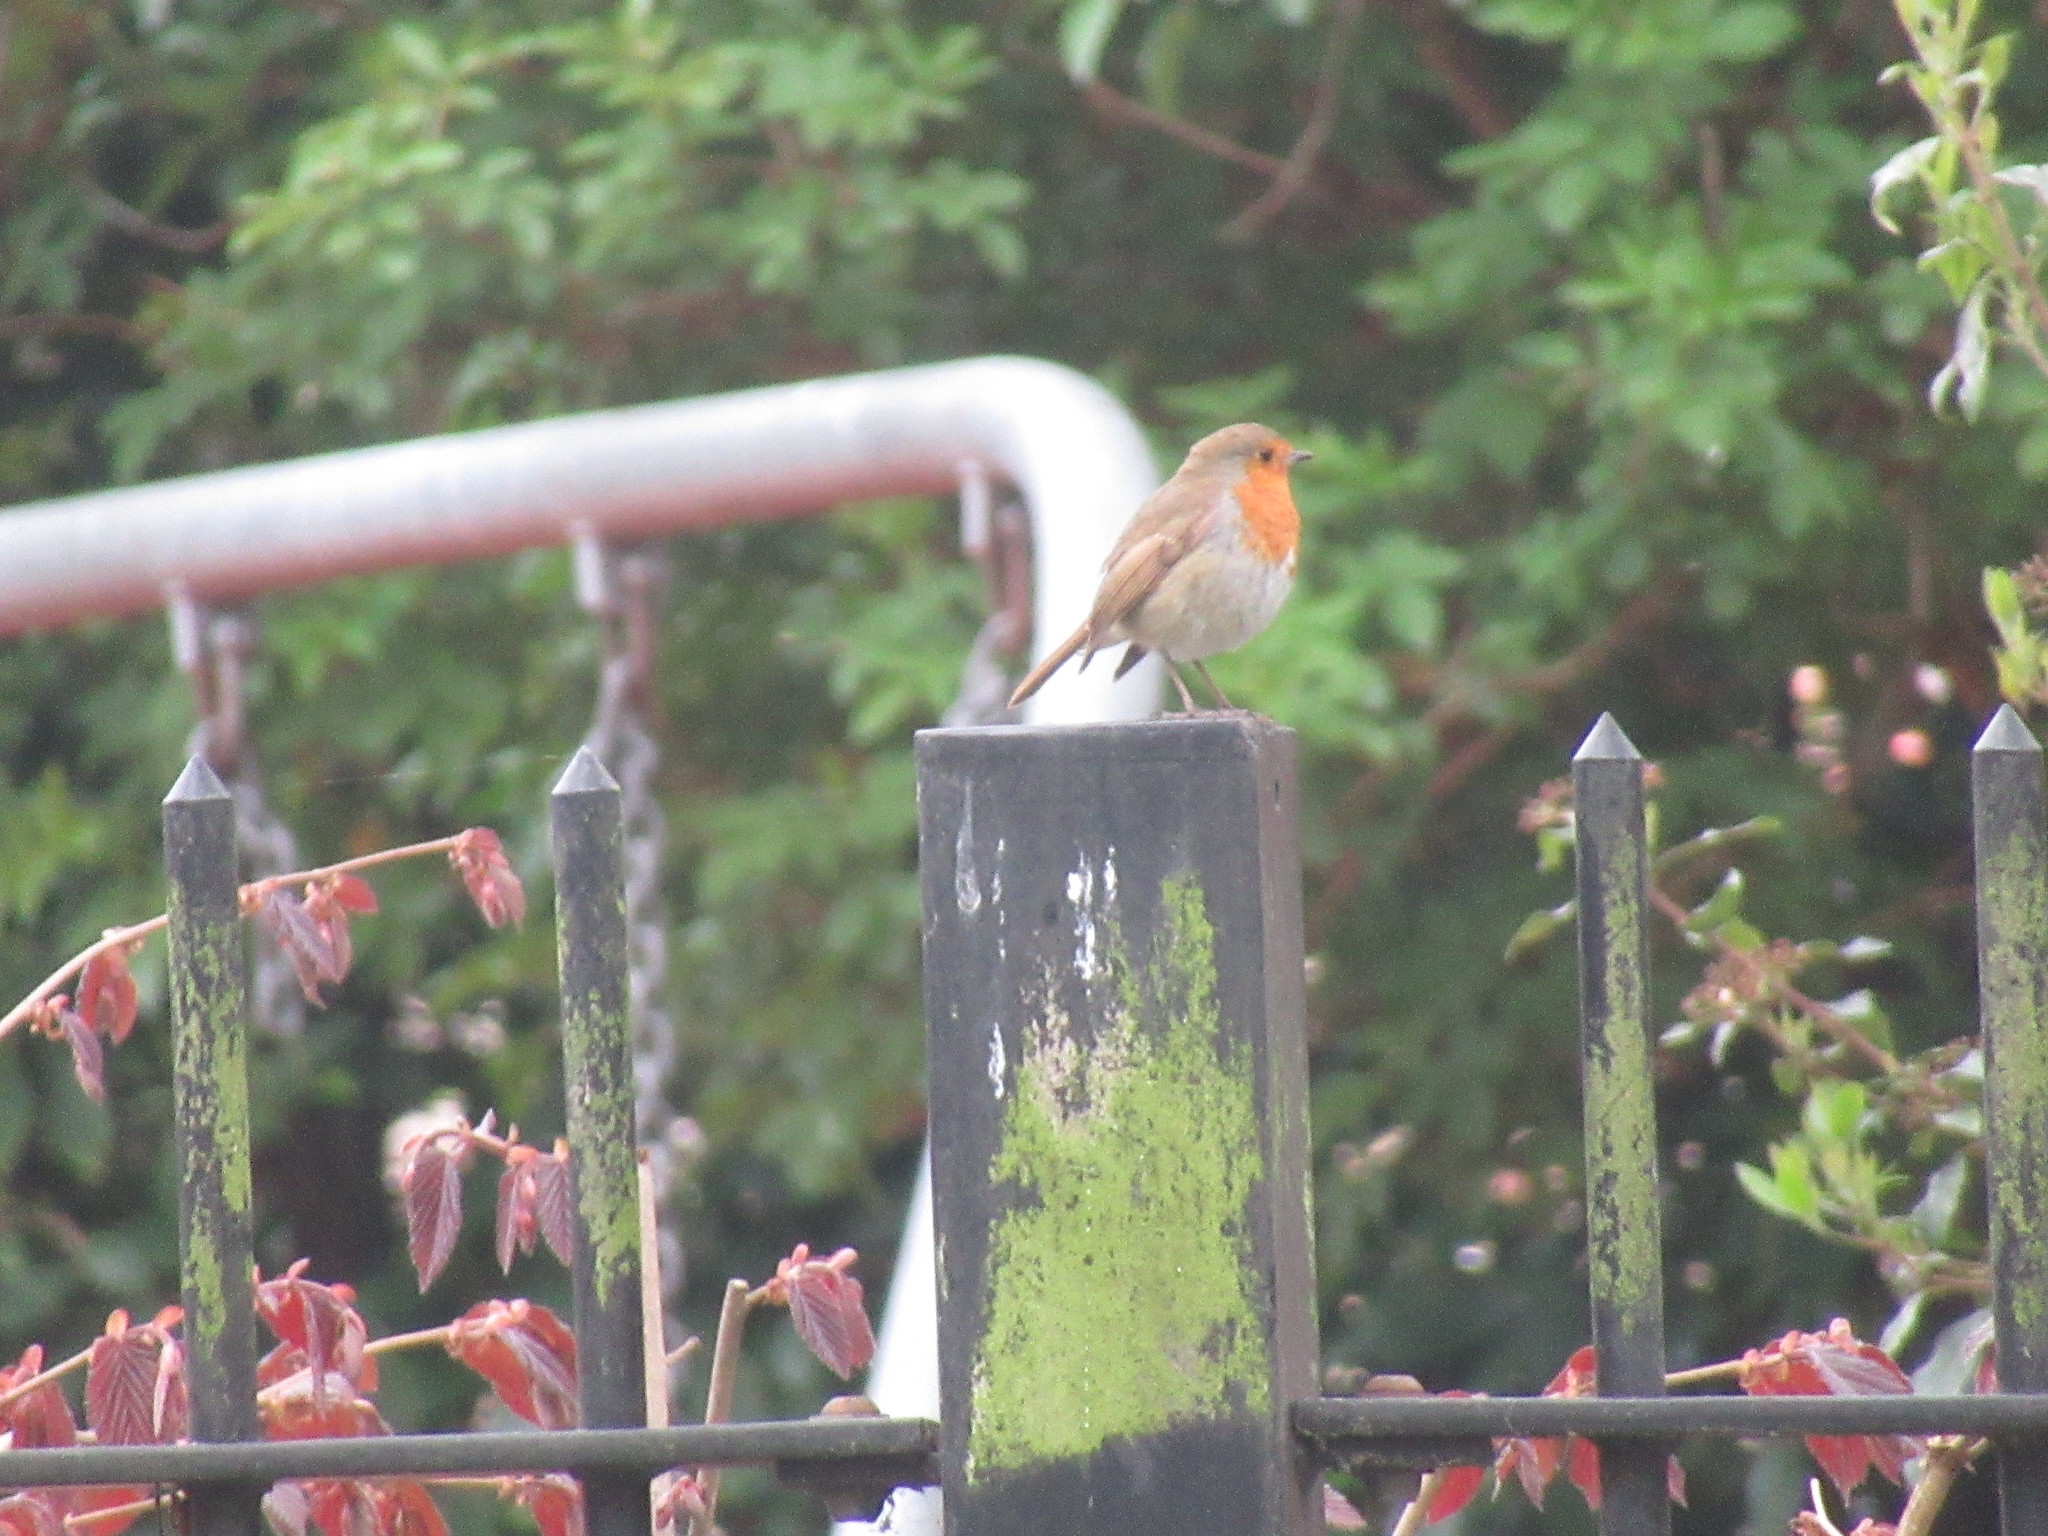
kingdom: Animalia
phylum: Chordata
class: Aves
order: Passeriformes
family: Muscicapidae
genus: Erithacus
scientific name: Erithacus rubecula
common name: European robin
